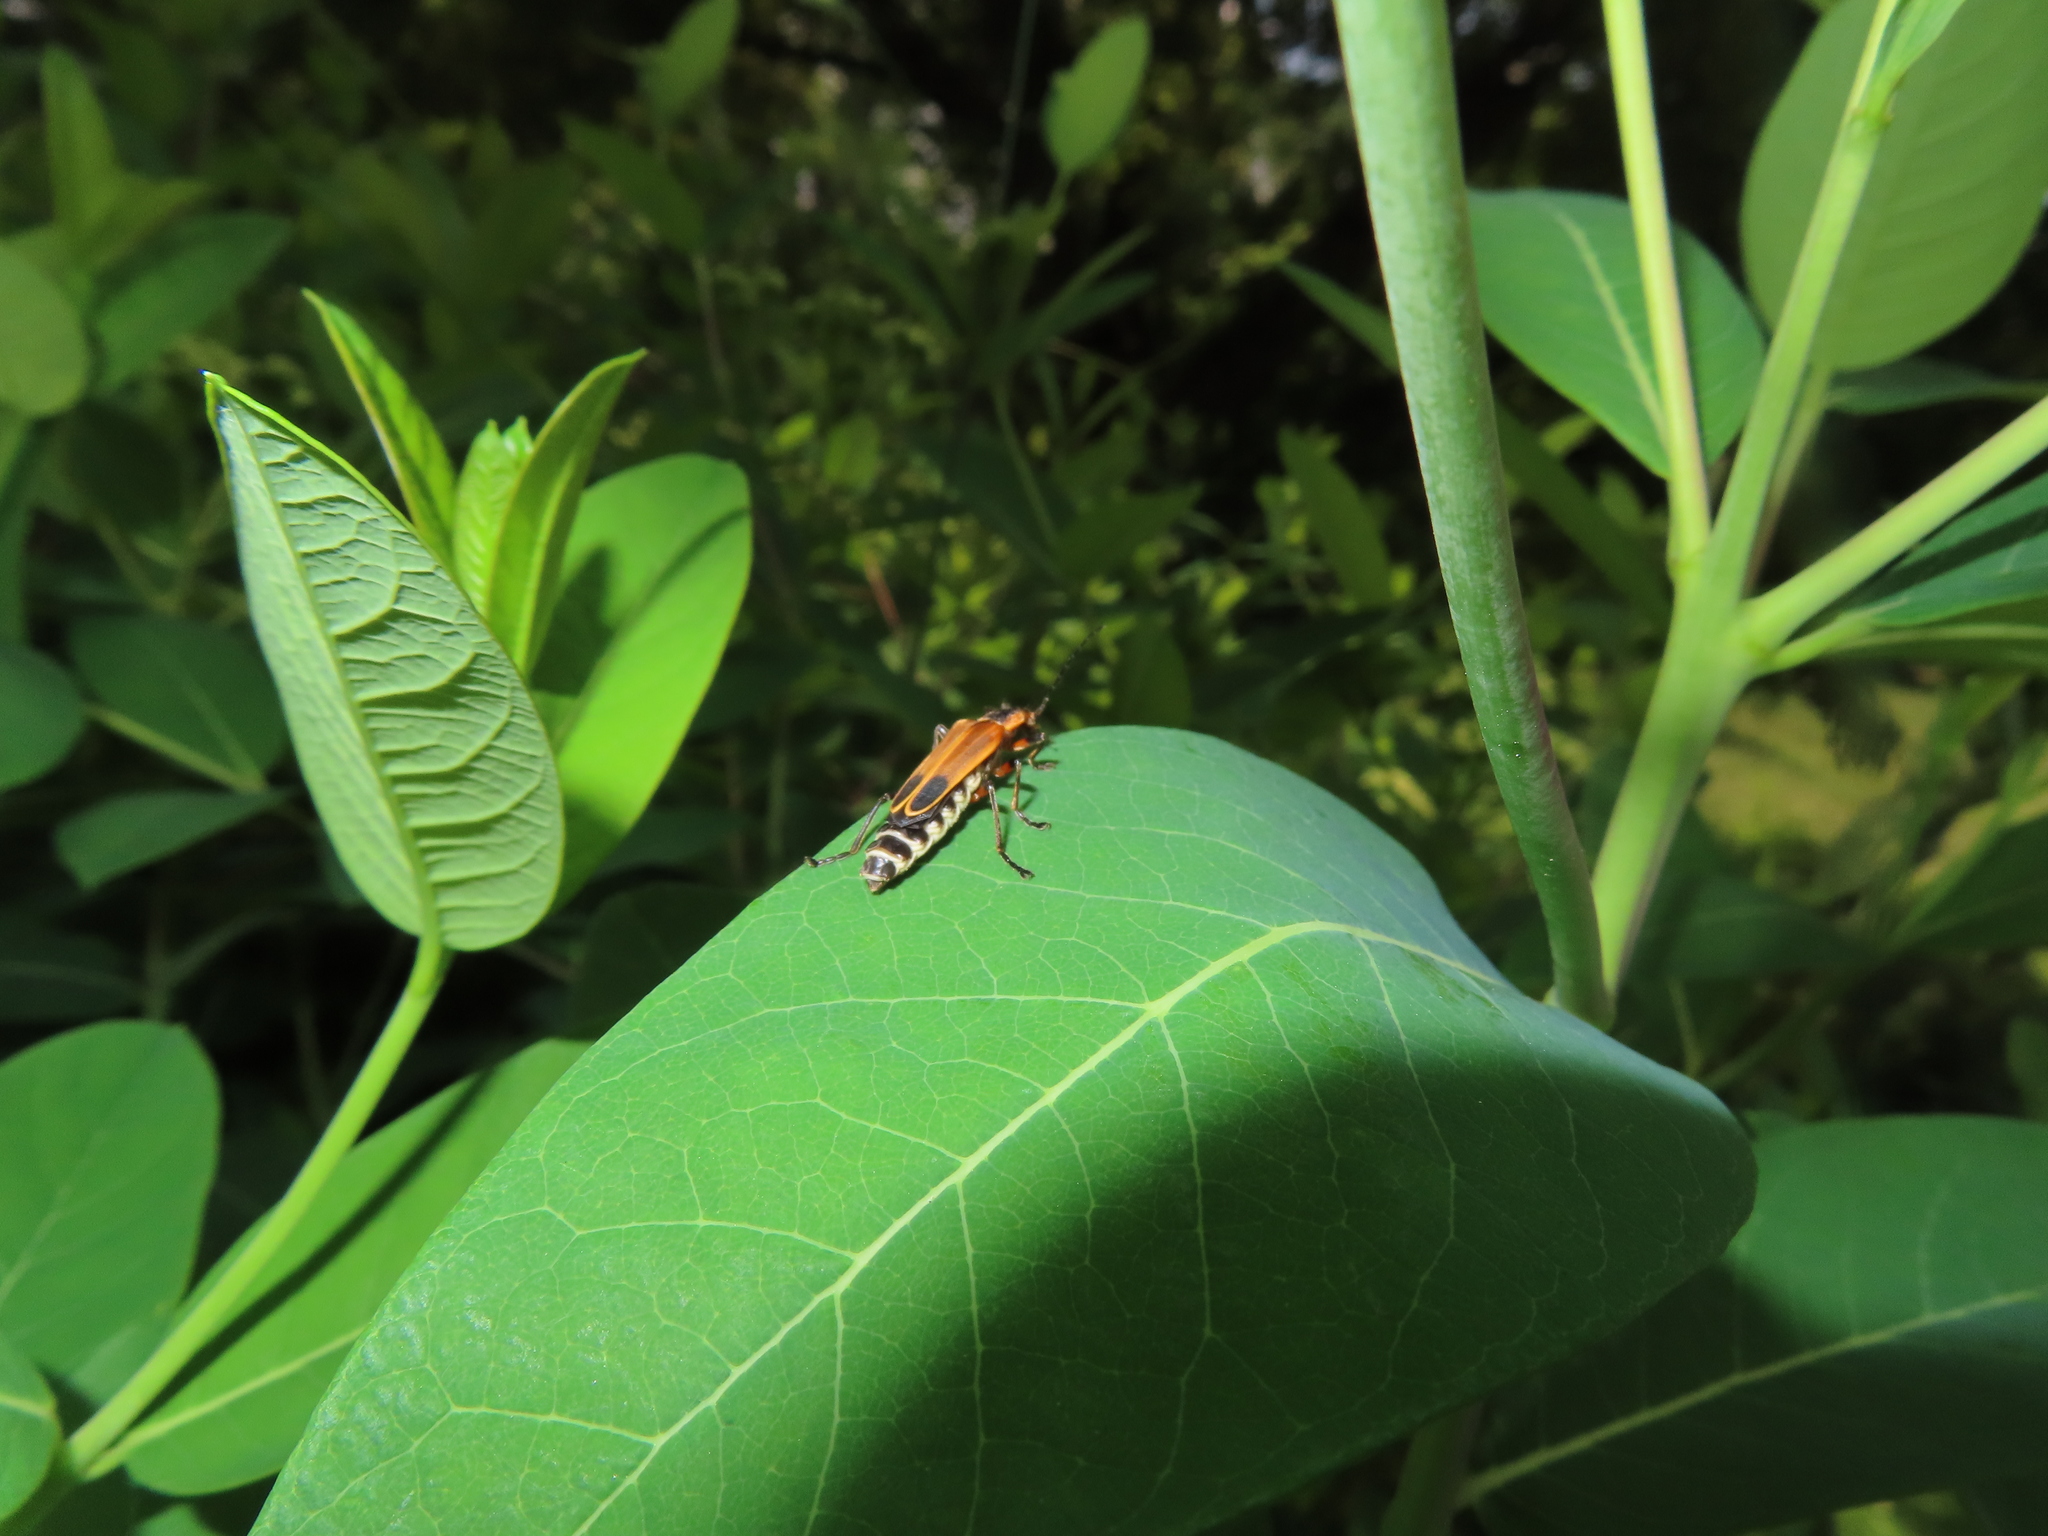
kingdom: Animalia
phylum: Arthropoda
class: Insecta
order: Coleoptera
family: Cantharidae
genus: Chauliognathus
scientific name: Chauliognathus marginatus
